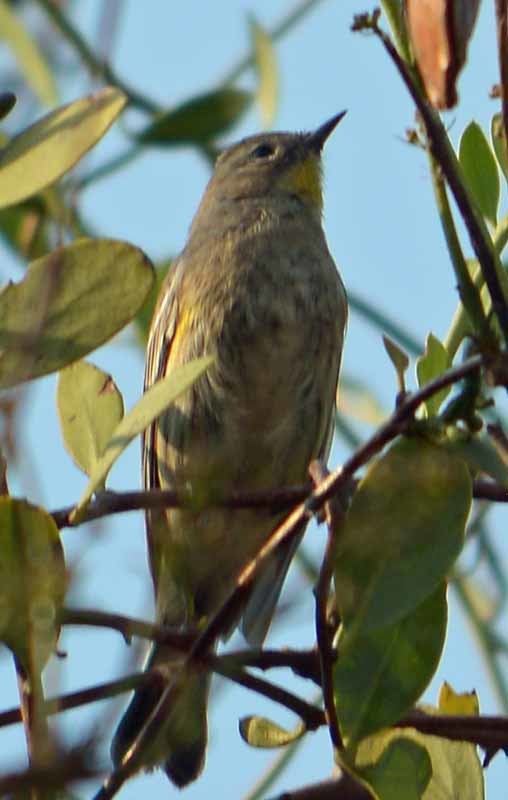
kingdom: Animalia
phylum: Chordata
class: Aves
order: Passeriformes
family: Parulidae
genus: Setophaga
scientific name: Setophaga coronata
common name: Myrtle warbler
